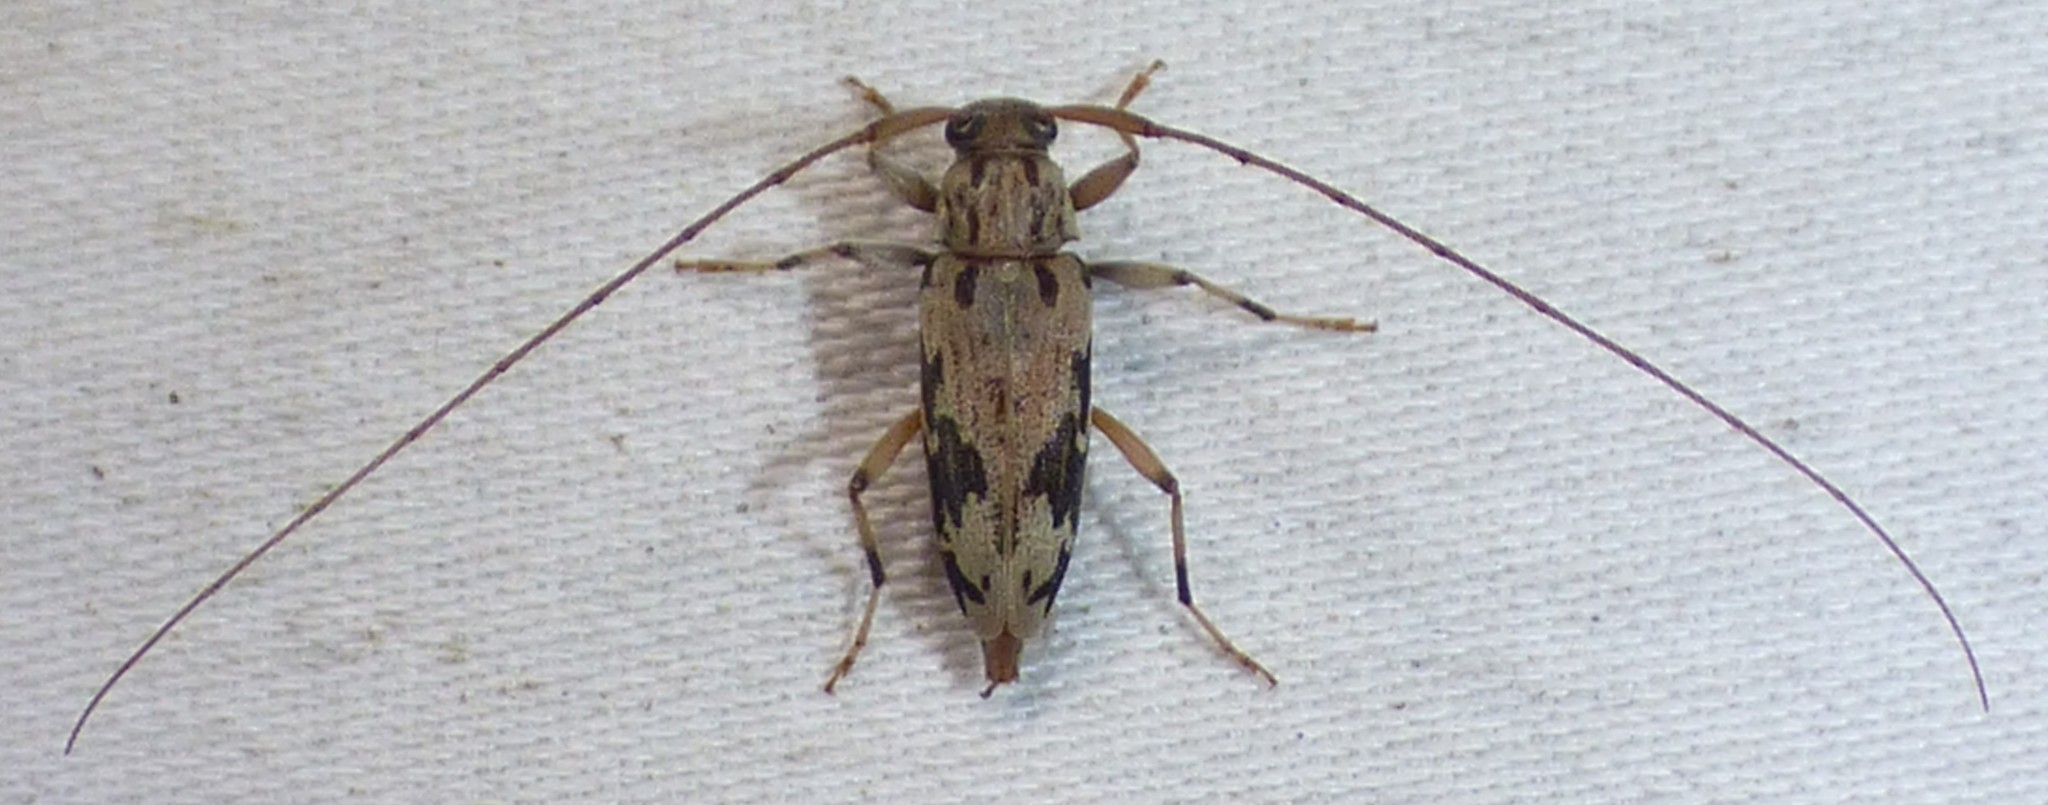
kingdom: Animalia
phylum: Arthropoda
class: Insecta
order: Coleoptera
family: Cerambycidae
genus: Lepturges
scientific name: Lepturges angulatus
